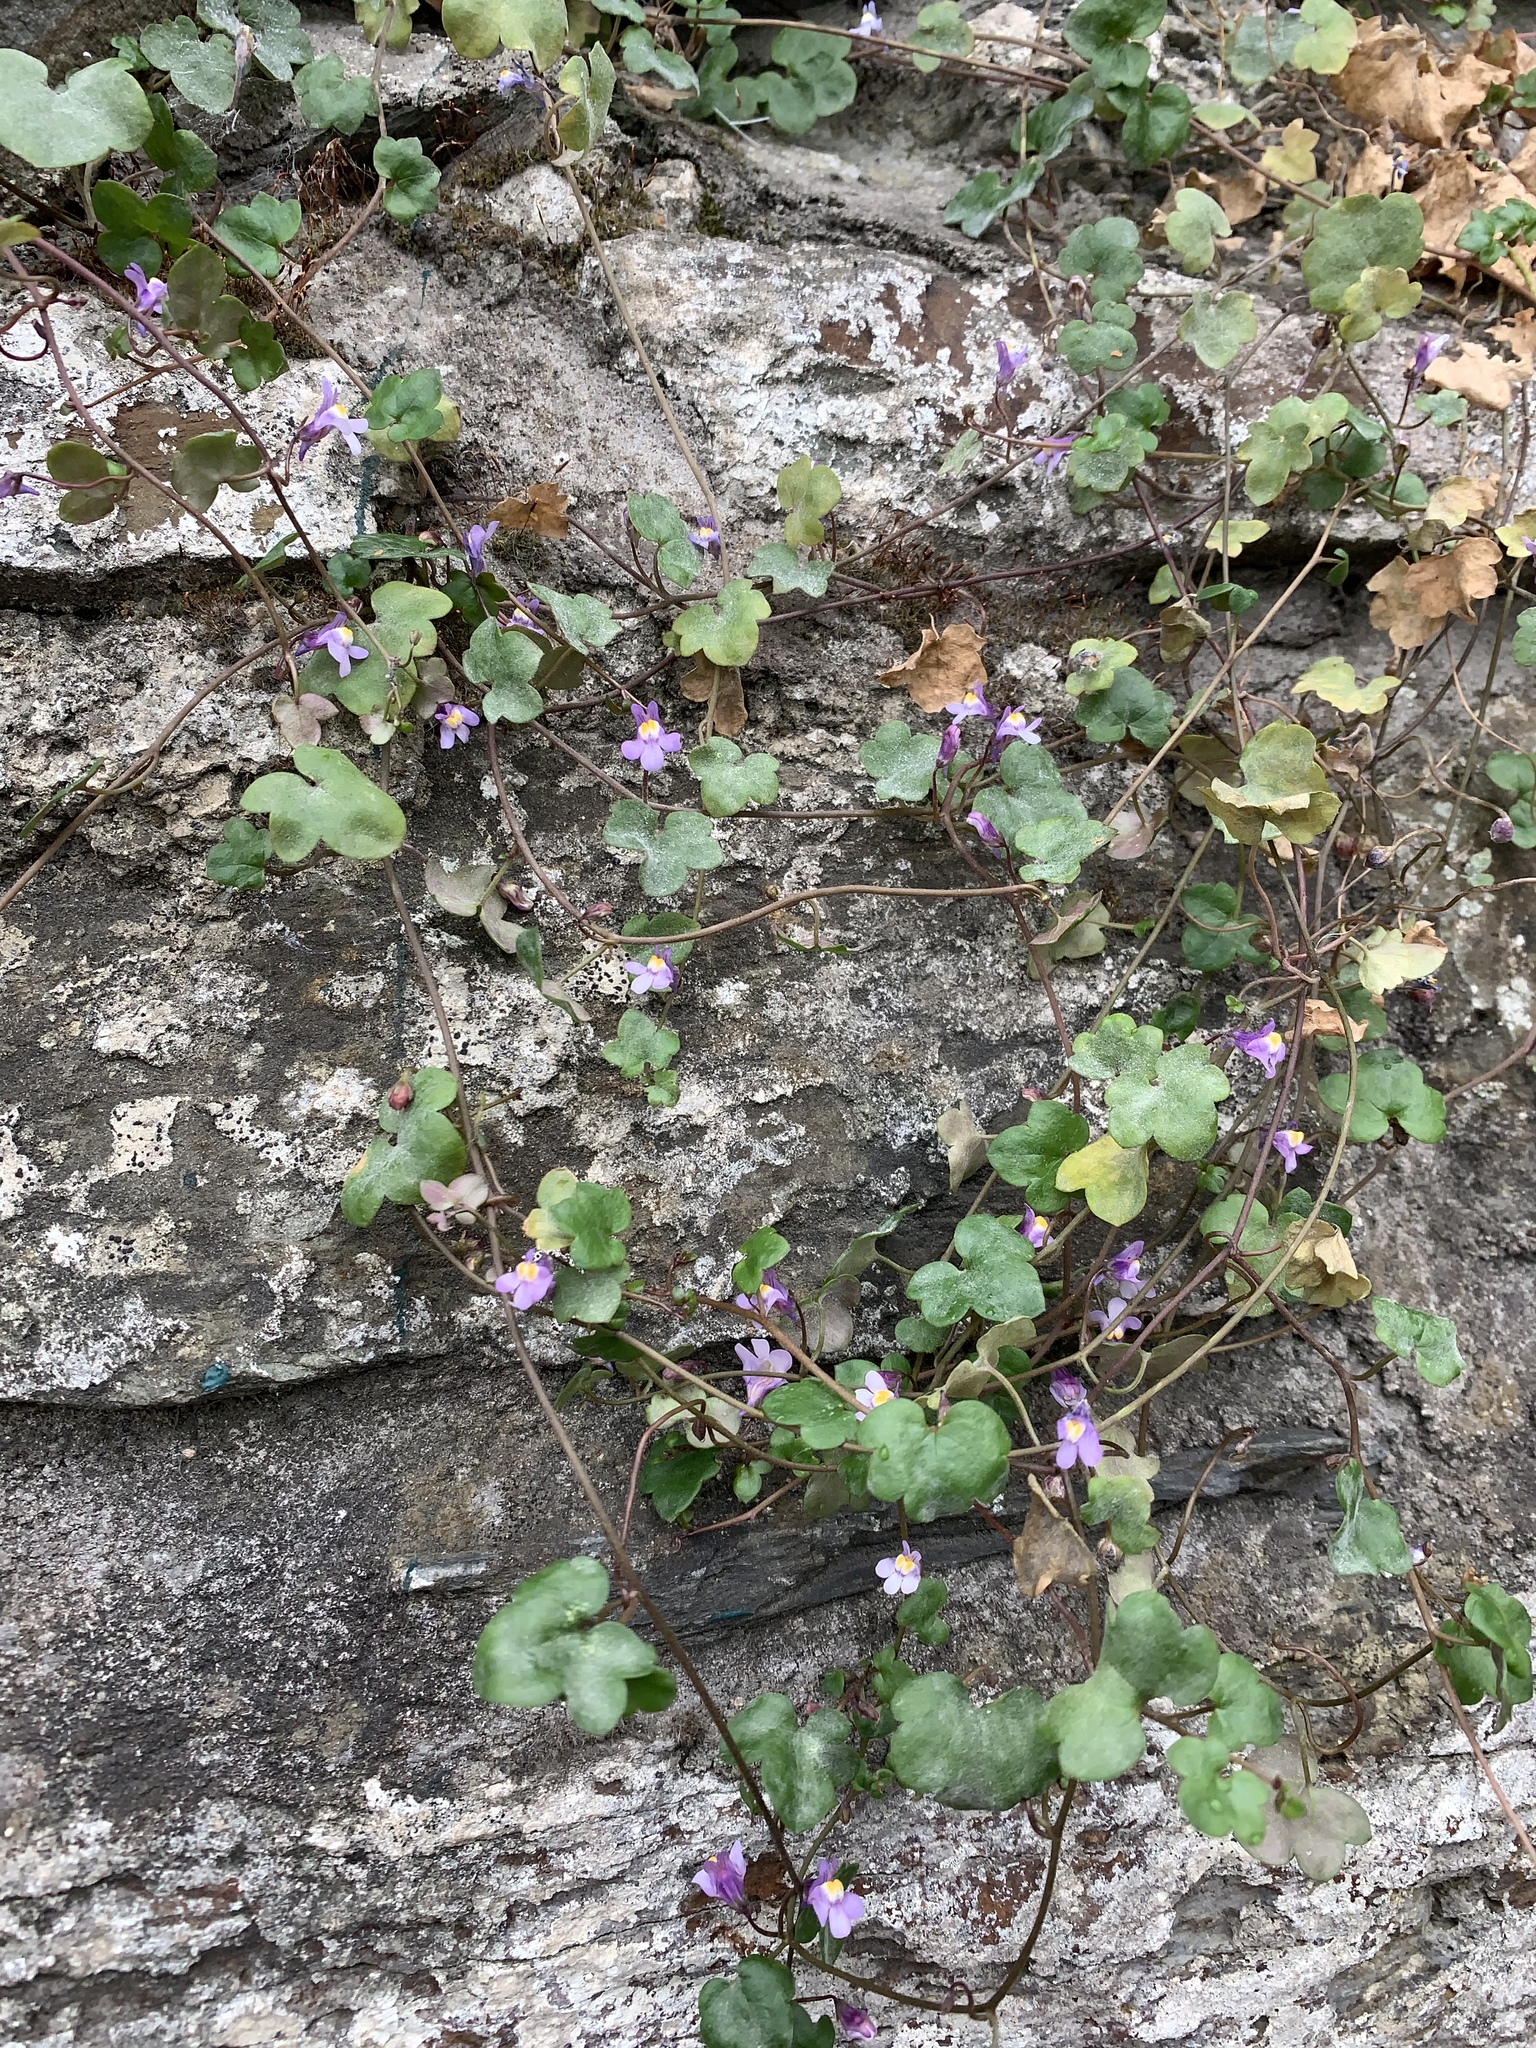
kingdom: Plantae
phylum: Tracheophyta
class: Magnoliopsida
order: Lamiales
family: Plantaginaceae
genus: Cymbalaria
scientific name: Cymbalaria muralis
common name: Ivy-leaved toadflax
